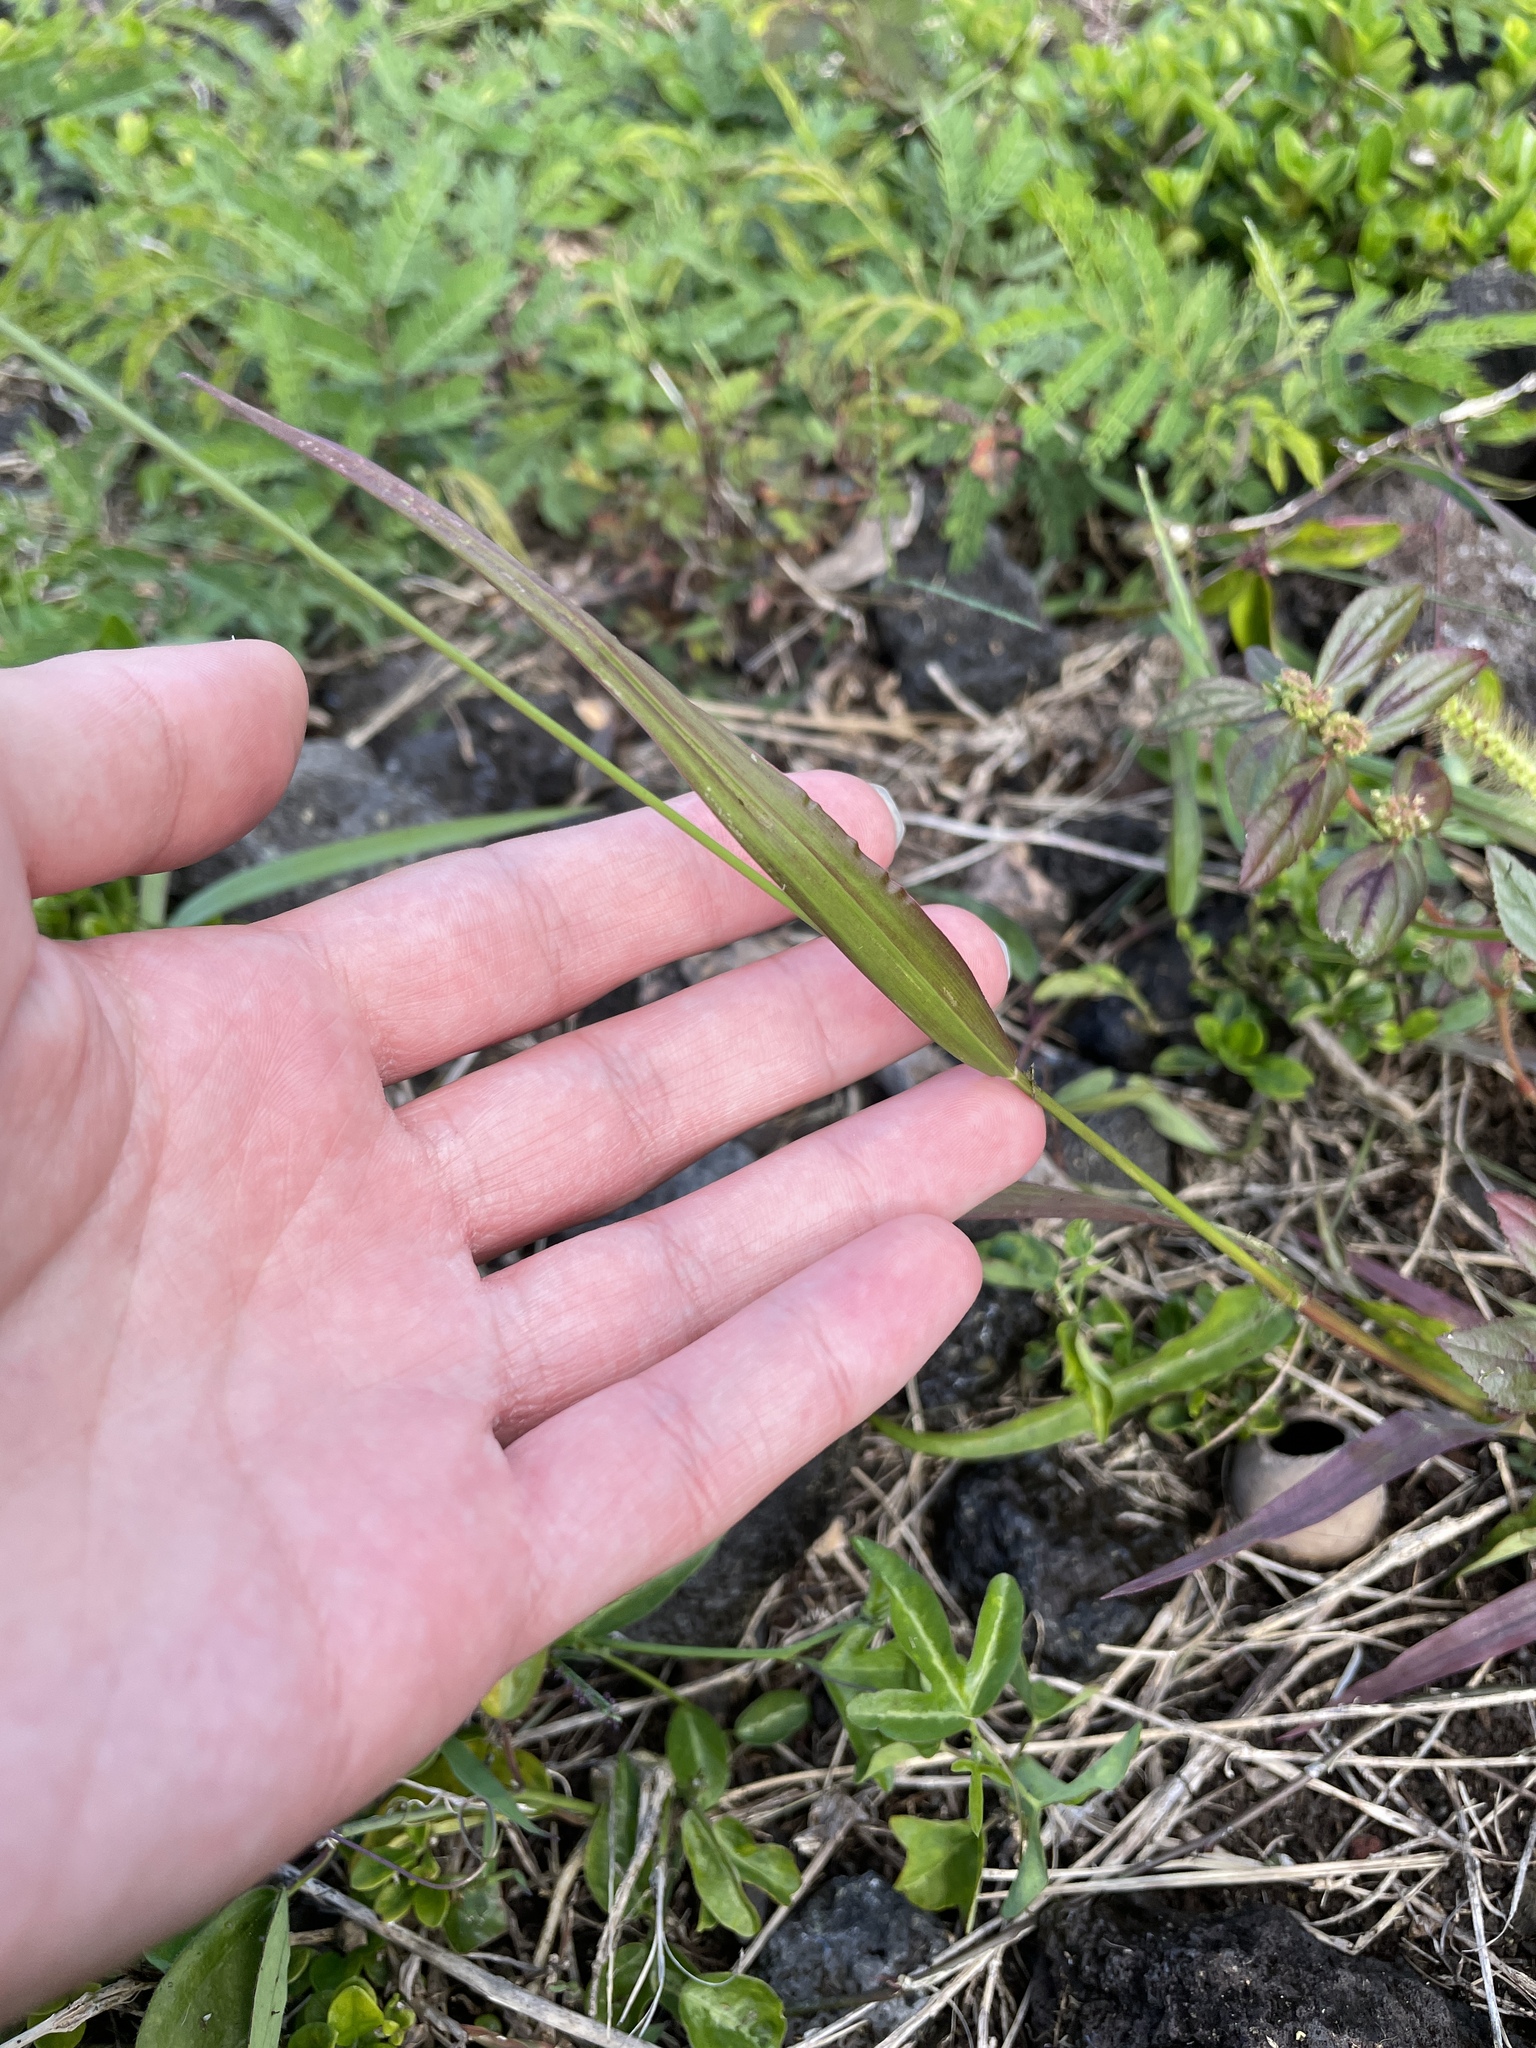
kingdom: Plantae
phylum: Tracheophyta
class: Liliopsida
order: Poales
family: Poaceae
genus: Setaria
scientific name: Setaria parviflora
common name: Knotroot bristle-grass
